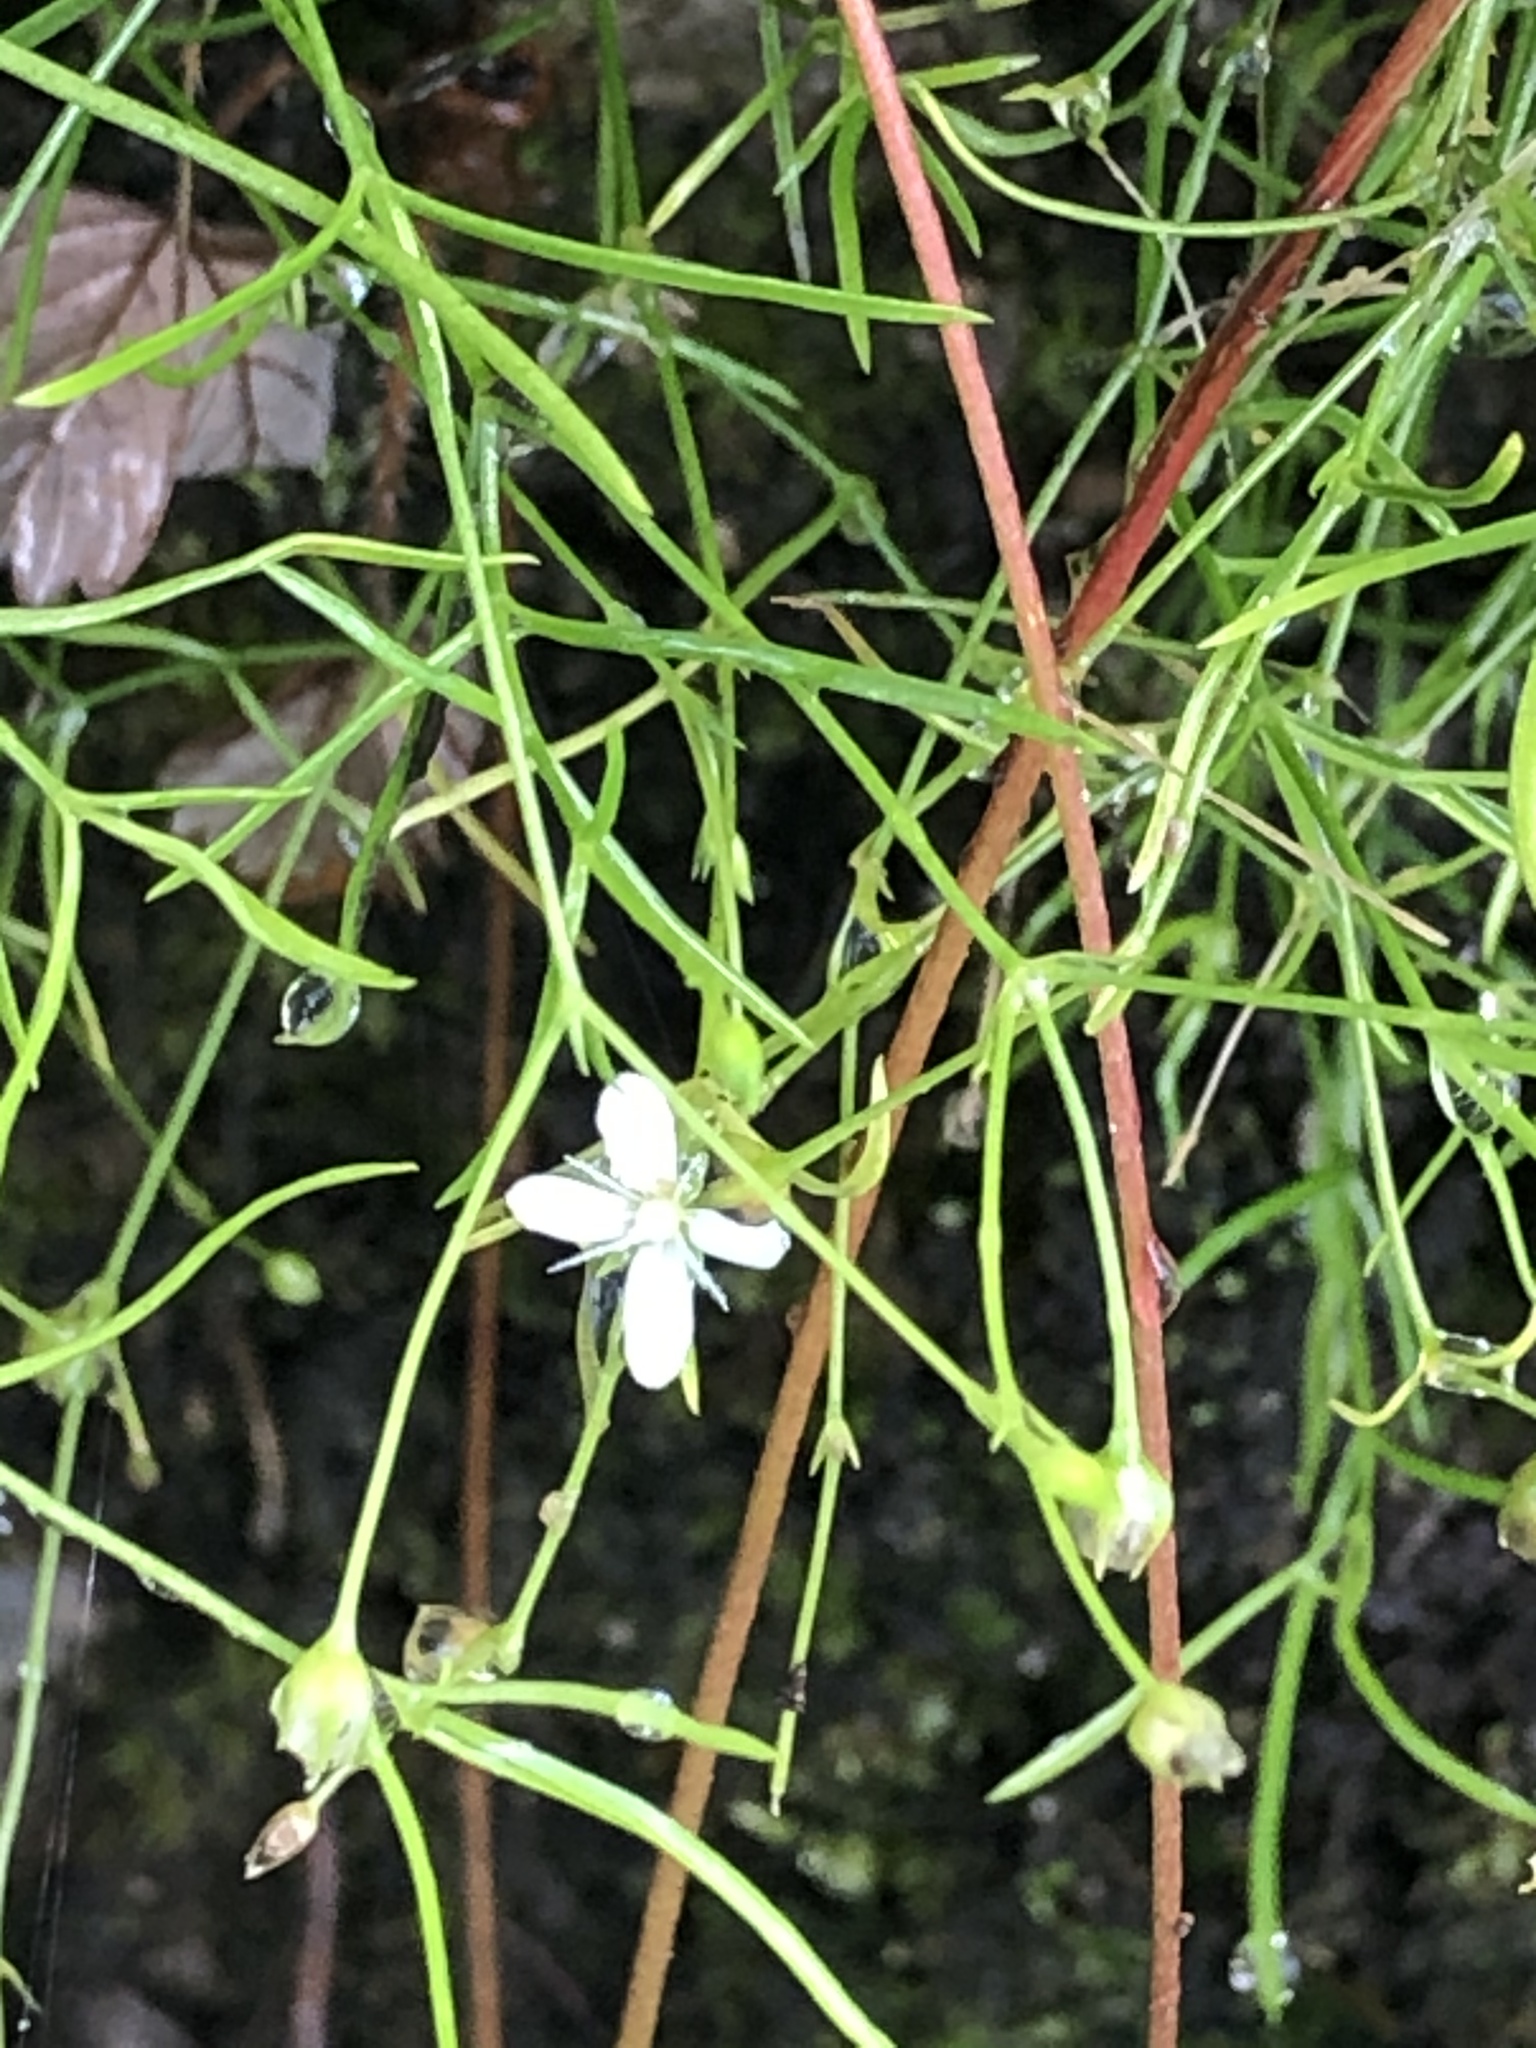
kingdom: Plantae
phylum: Tracheophyta
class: Magnoliopsida
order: Caryophyllales
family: Caryophyllaceae
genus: Moehringia
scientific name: Moehringia muscosa
